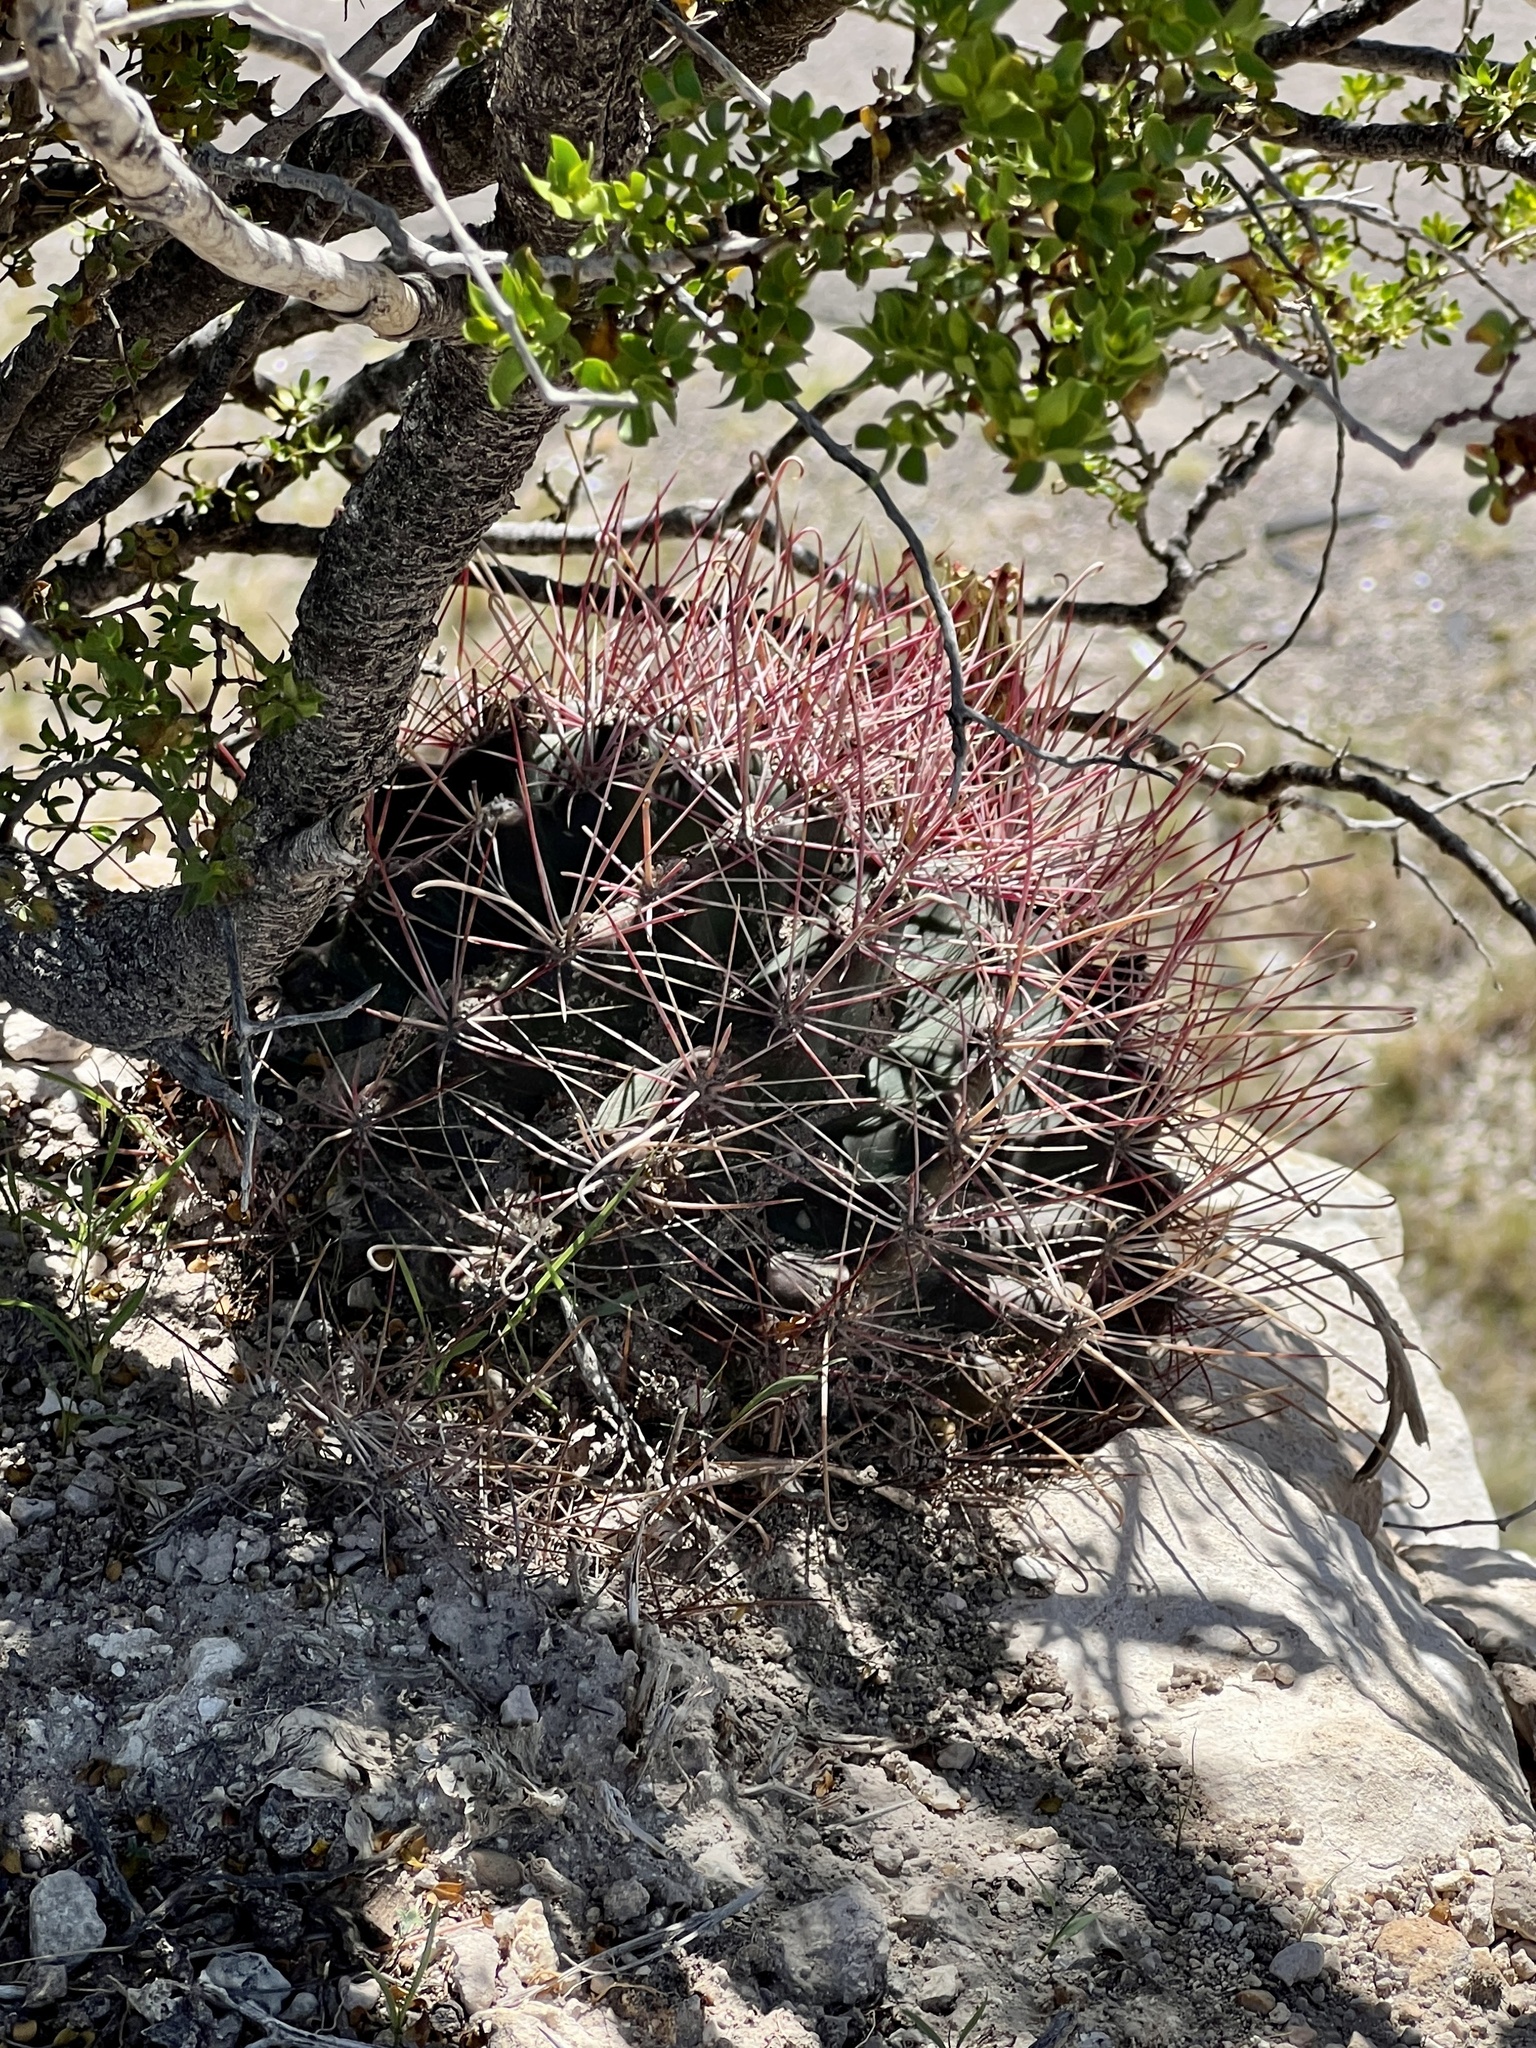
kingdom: Plantae
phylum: Tracheophyta
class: Magnoliopsida
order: Caryophyllales
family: Cactaceae
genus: Bisnaga
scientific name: Bisnaga hamatacantha
